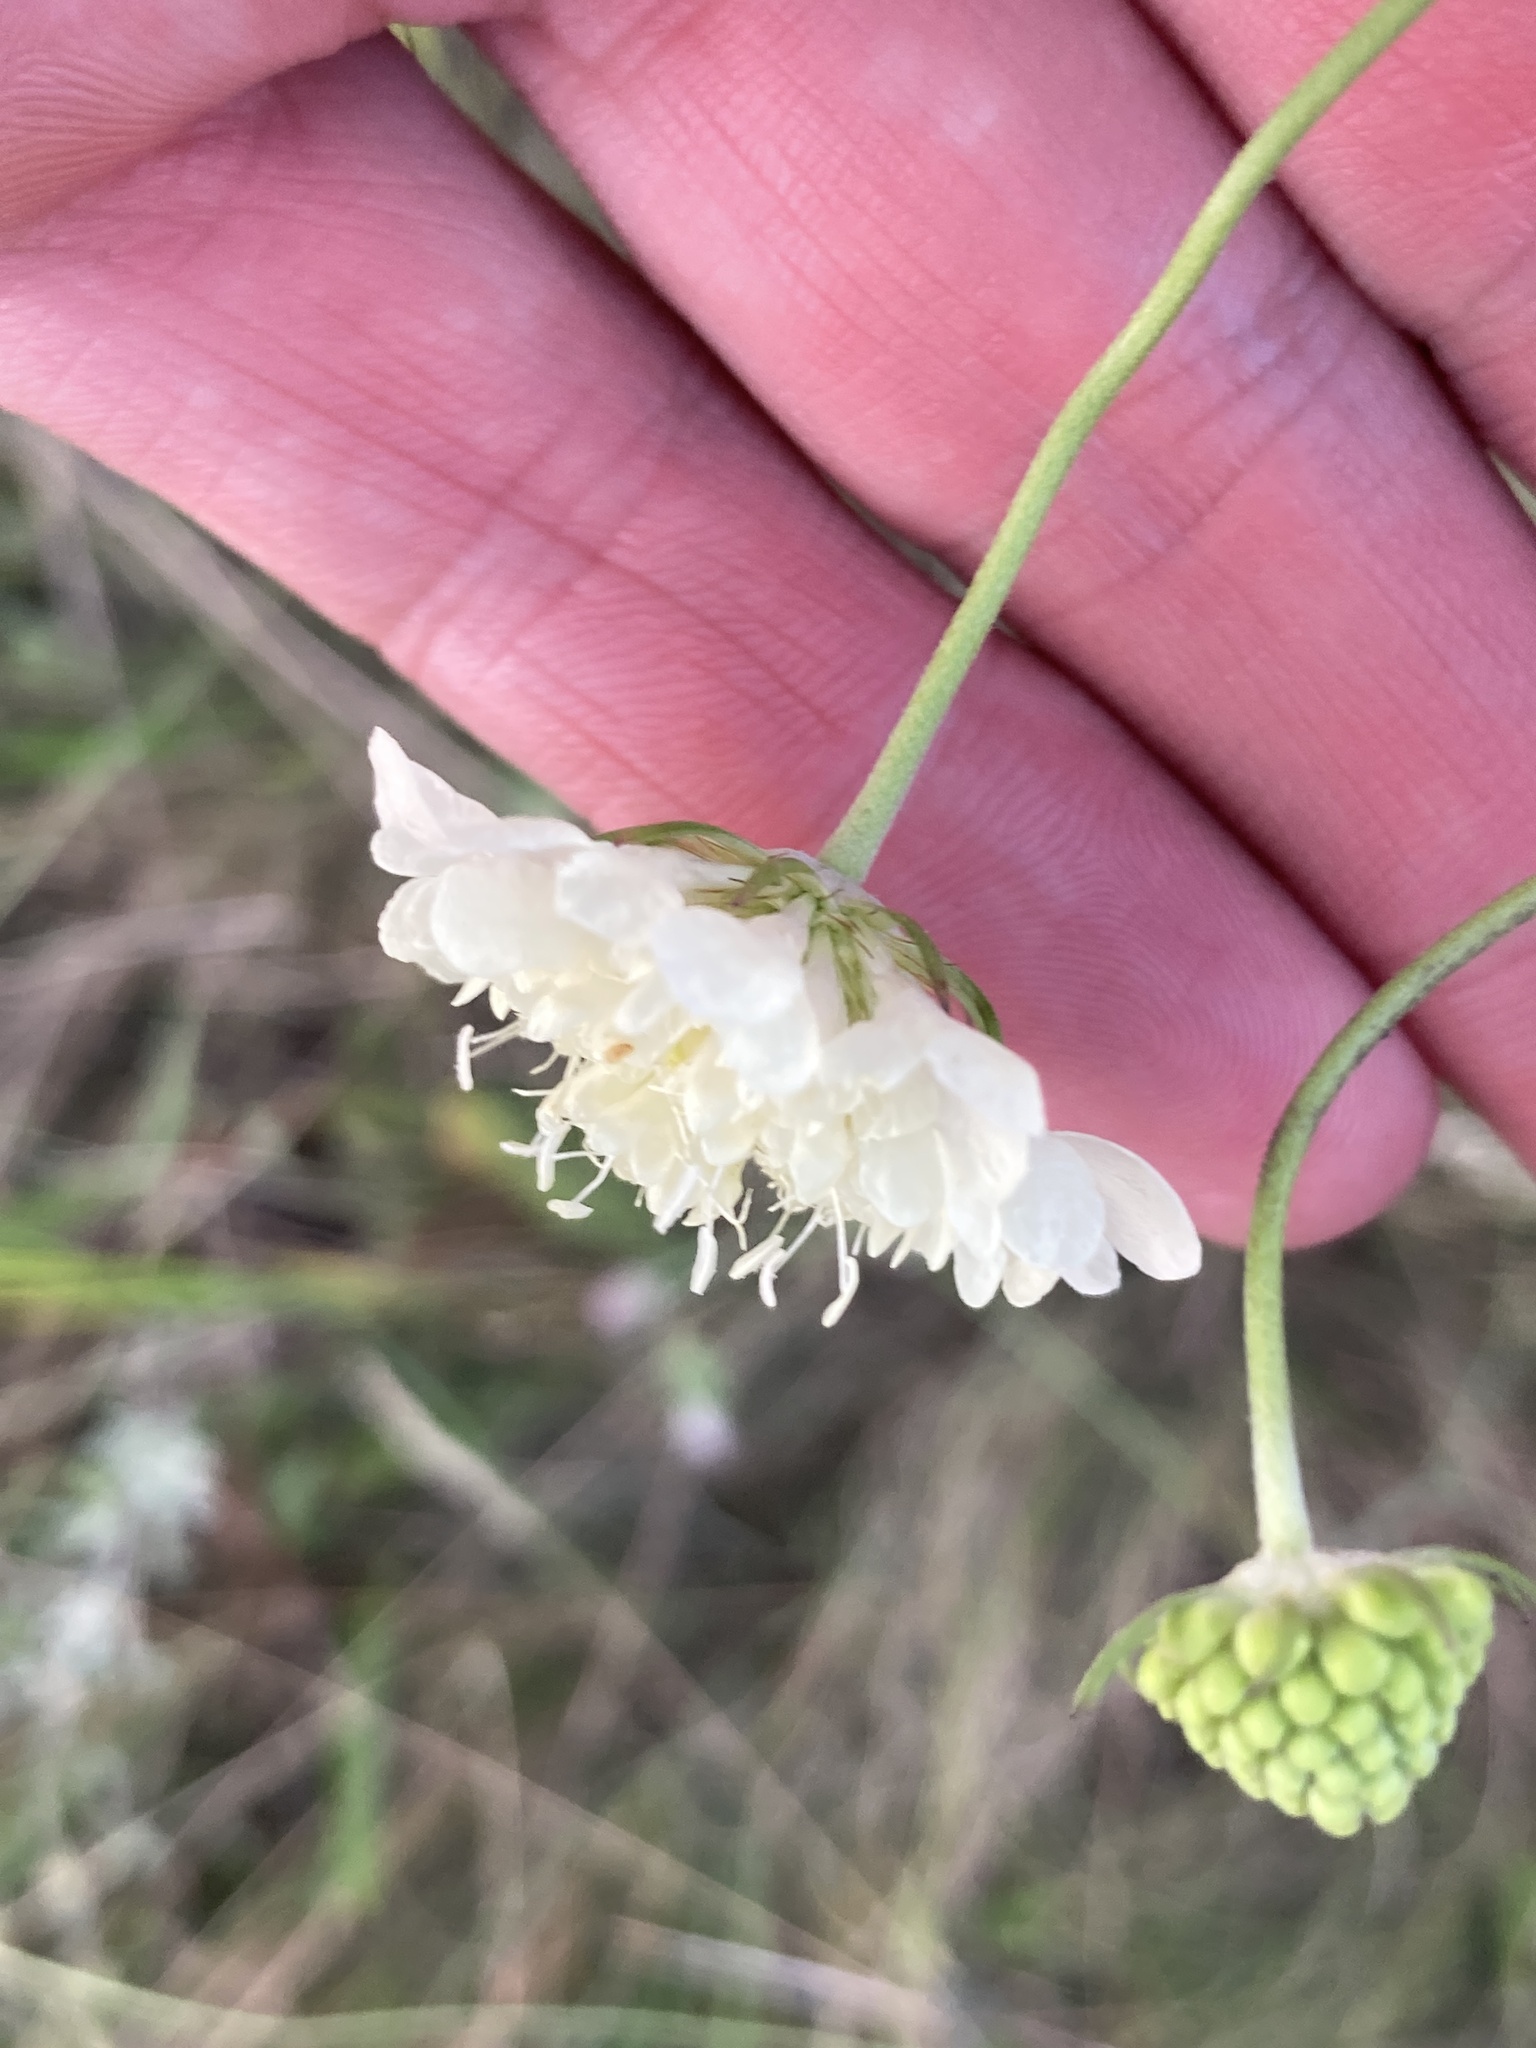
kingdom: Plantae
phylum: Tracheophyta
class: Magnoliopsida
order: Dipsacales
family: Caprifoliaceae
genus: Scabiosa
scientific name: Scabiosa ochroleuca
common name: Cream pincushions
